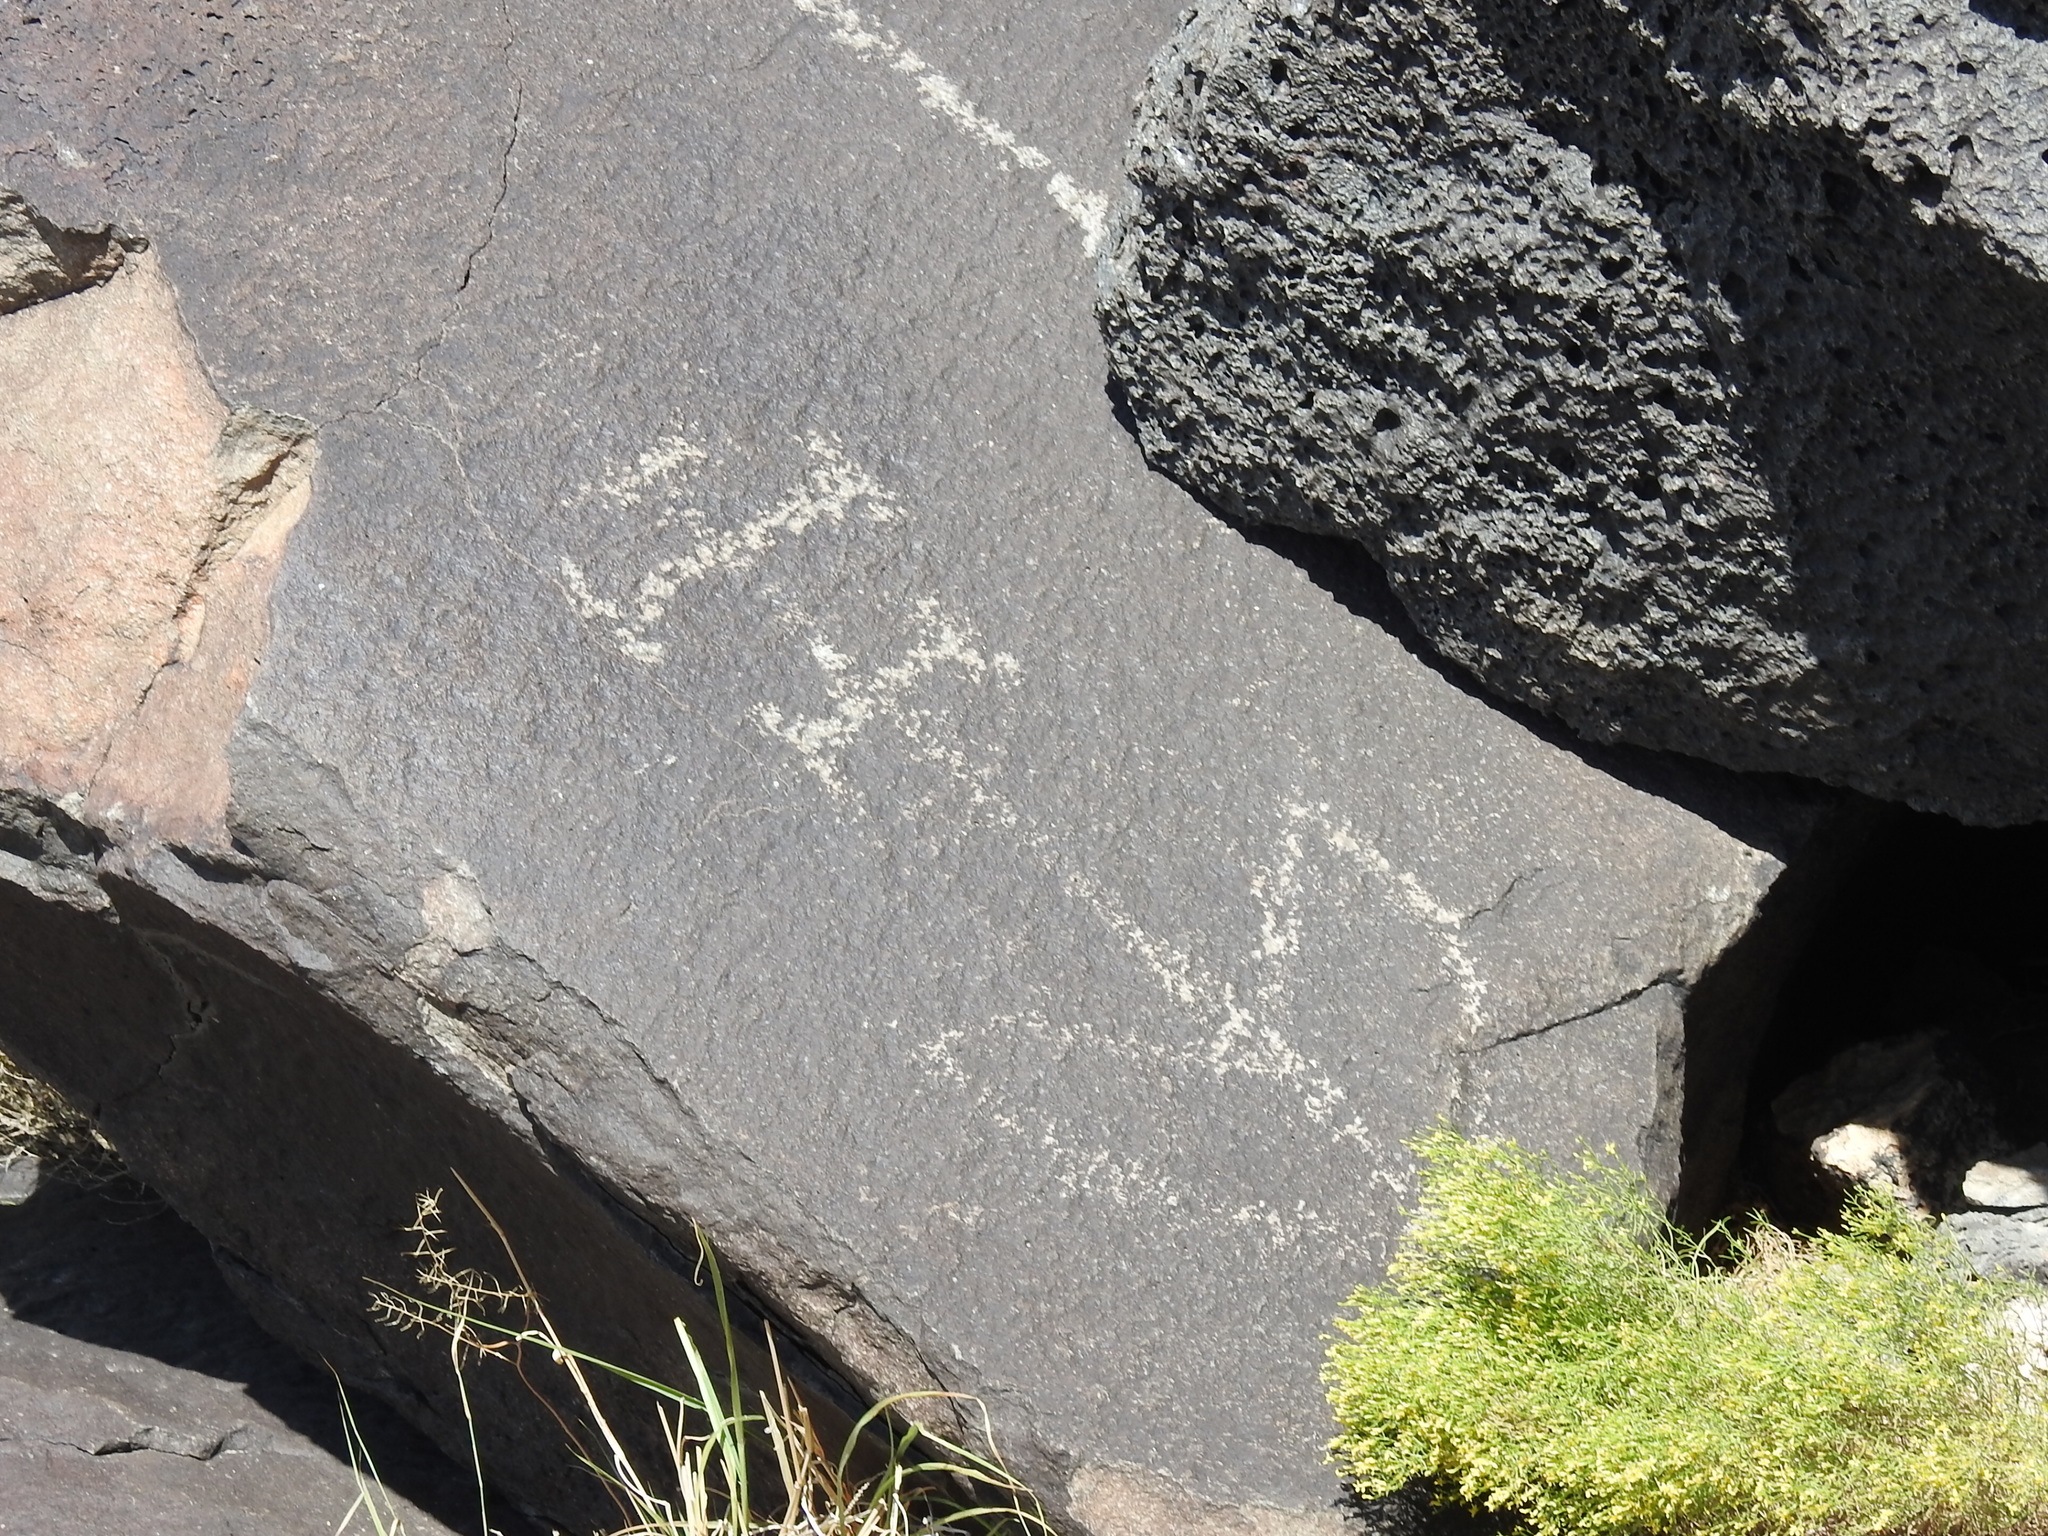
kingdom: Plantae
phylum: Tracheophyta
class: Magnoliopsida
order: Solanales
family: Solanaceae
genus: Nicotiana
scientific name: Nicotiana obtusifolia
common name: Desert tobacco
